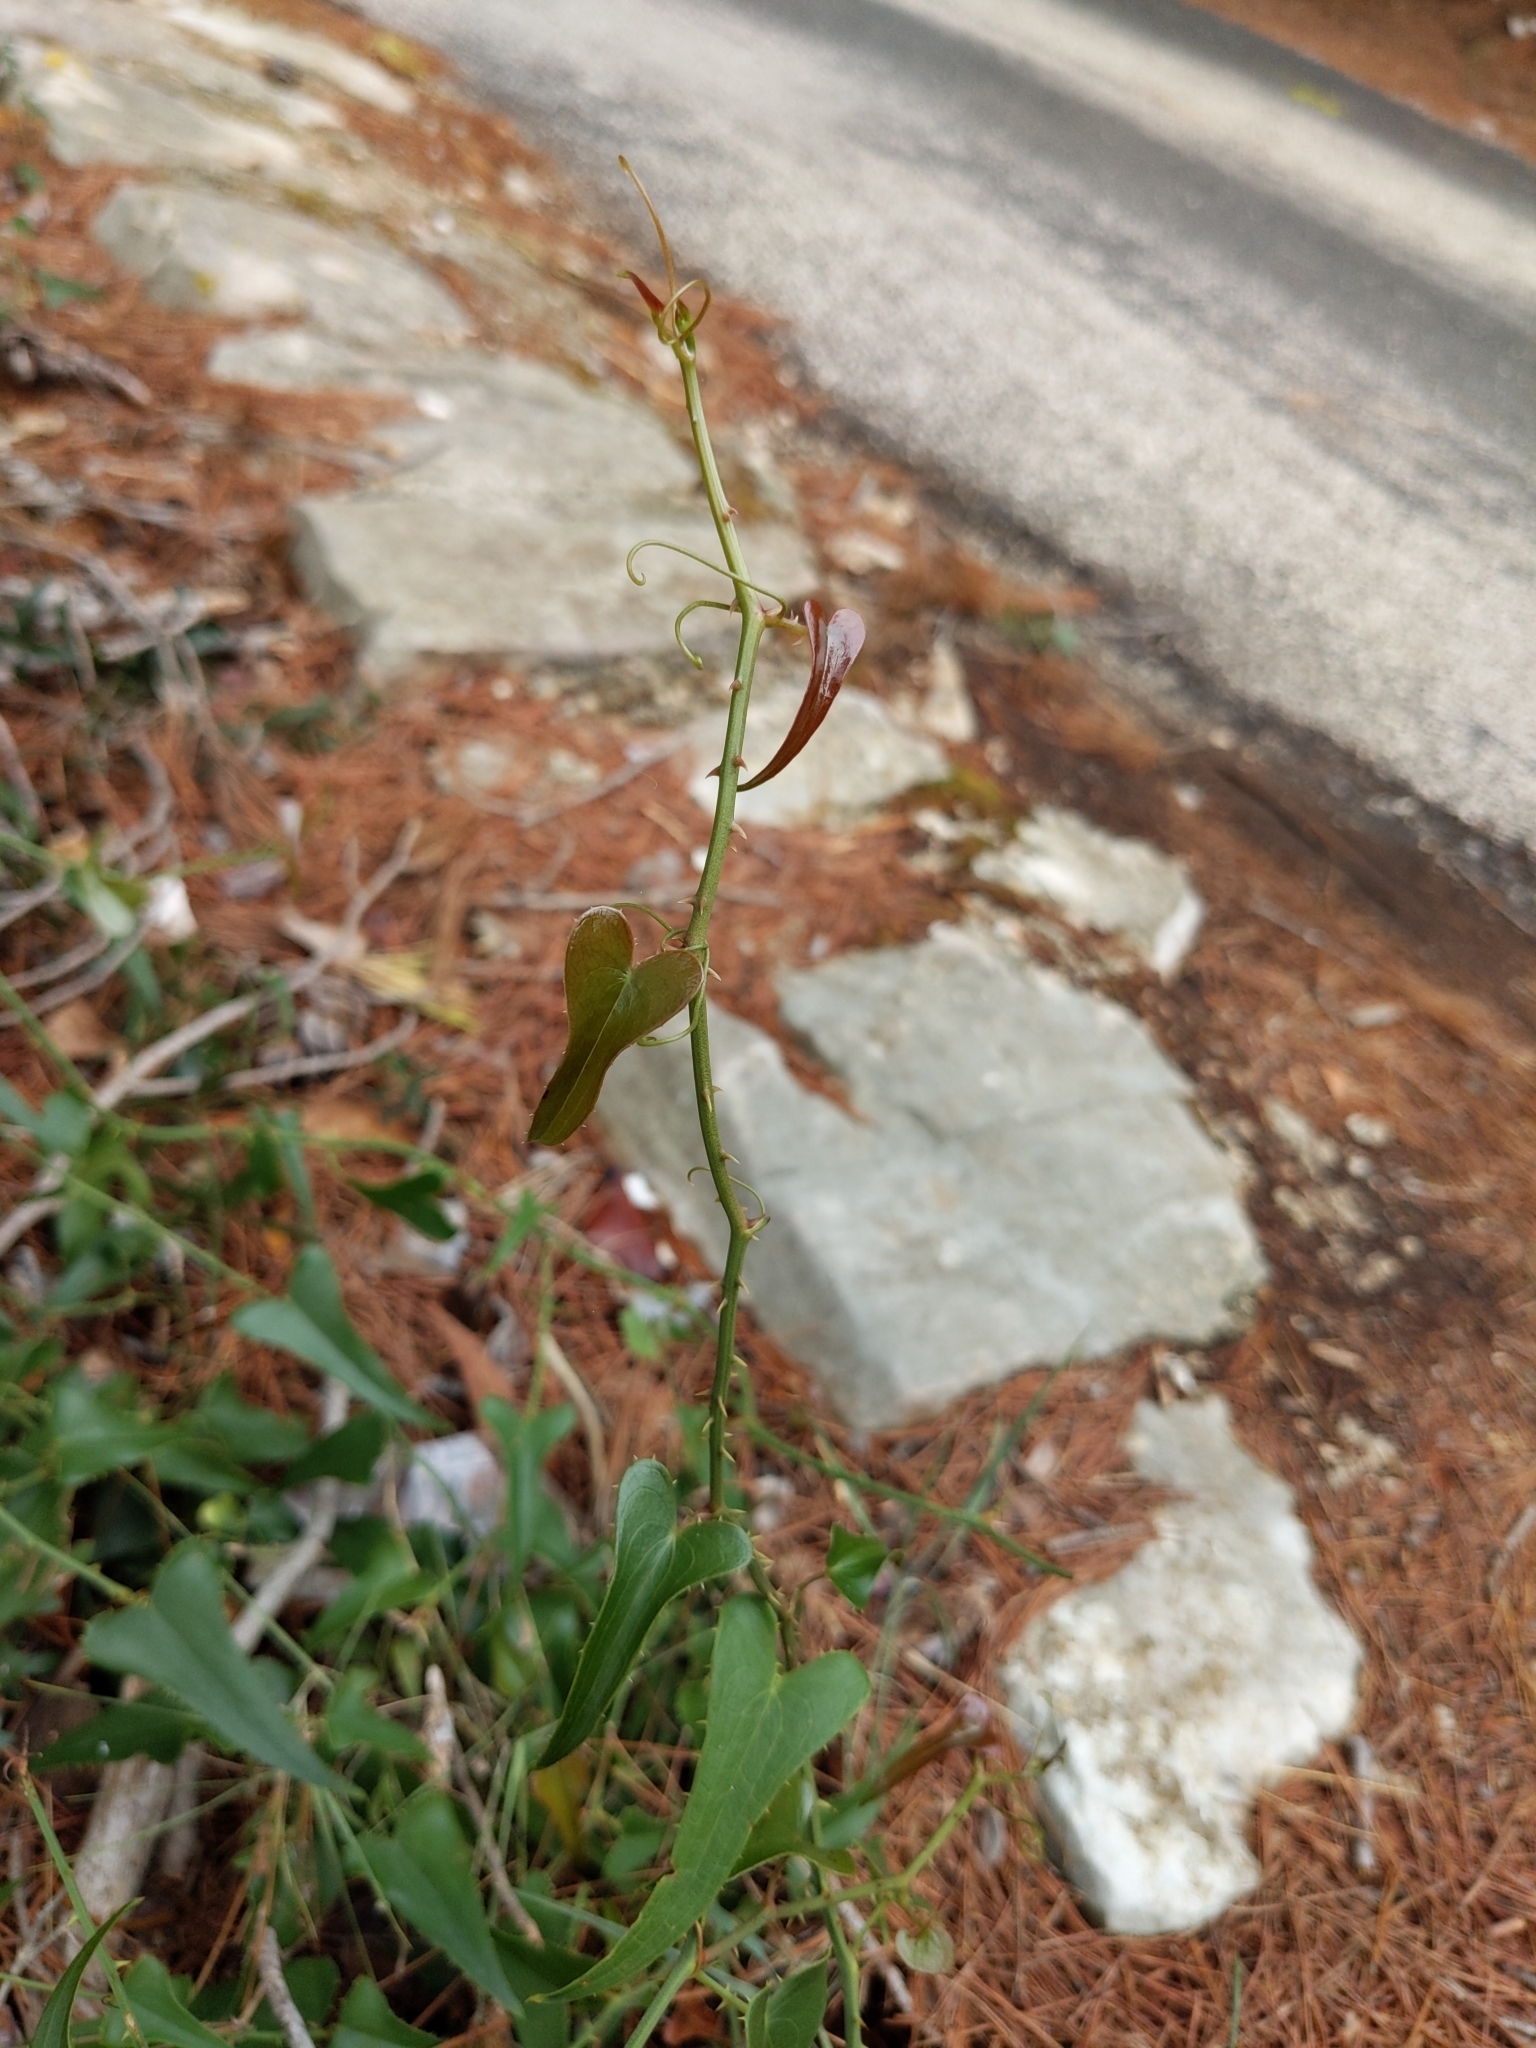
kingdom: Plantae
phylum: Tracheophyta
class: Liliopsida
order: Liliales
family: Smilacaceae
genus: Smilax
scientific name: Smilax aspera
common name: Common smilax
